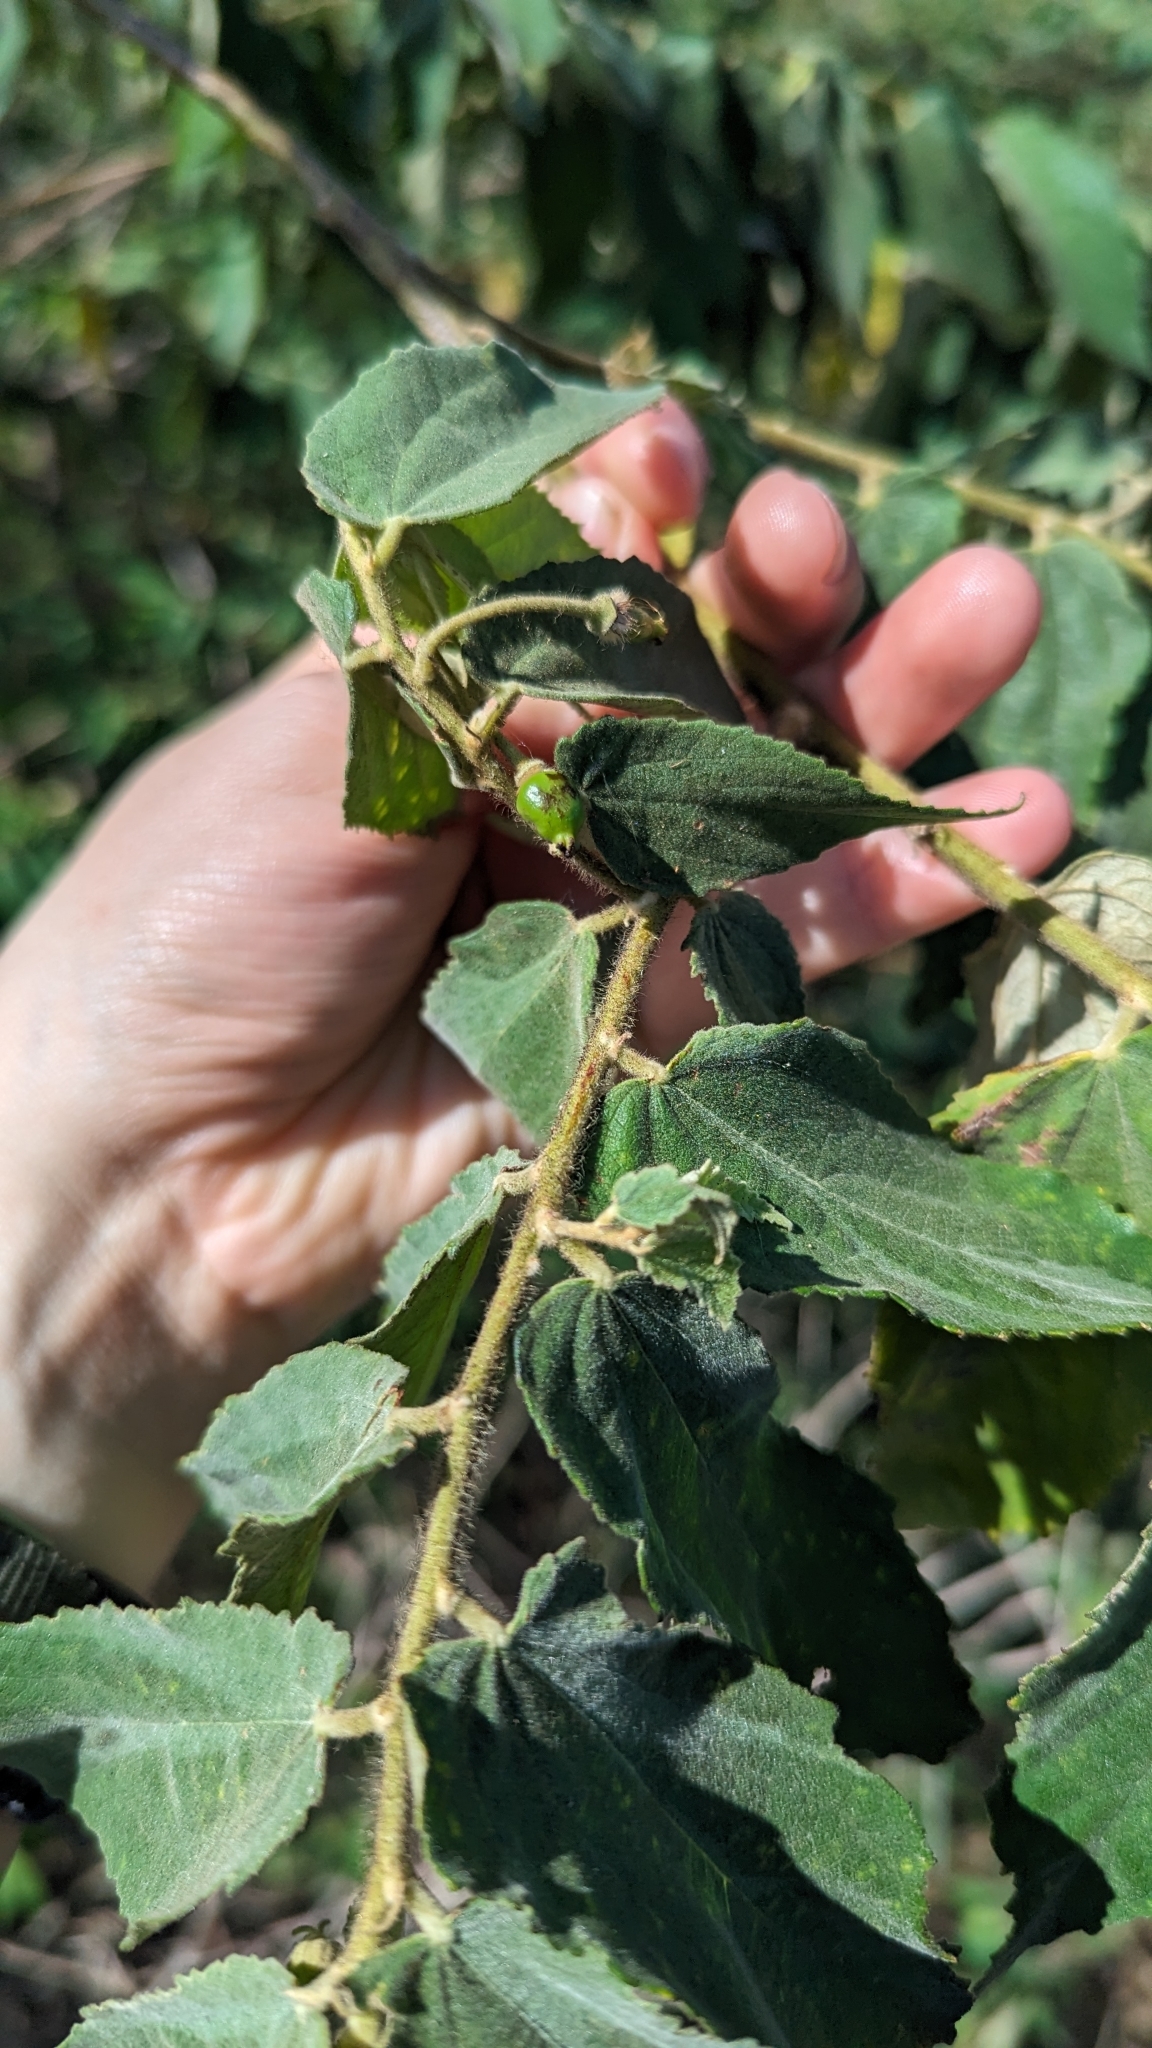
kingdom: Plantae
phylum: Tracheophyta
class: Magnoliopsida
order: Malvales
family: Muntingiaceae
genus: Muntingia
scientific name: Muntingia calabura
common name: Strawberrytree
